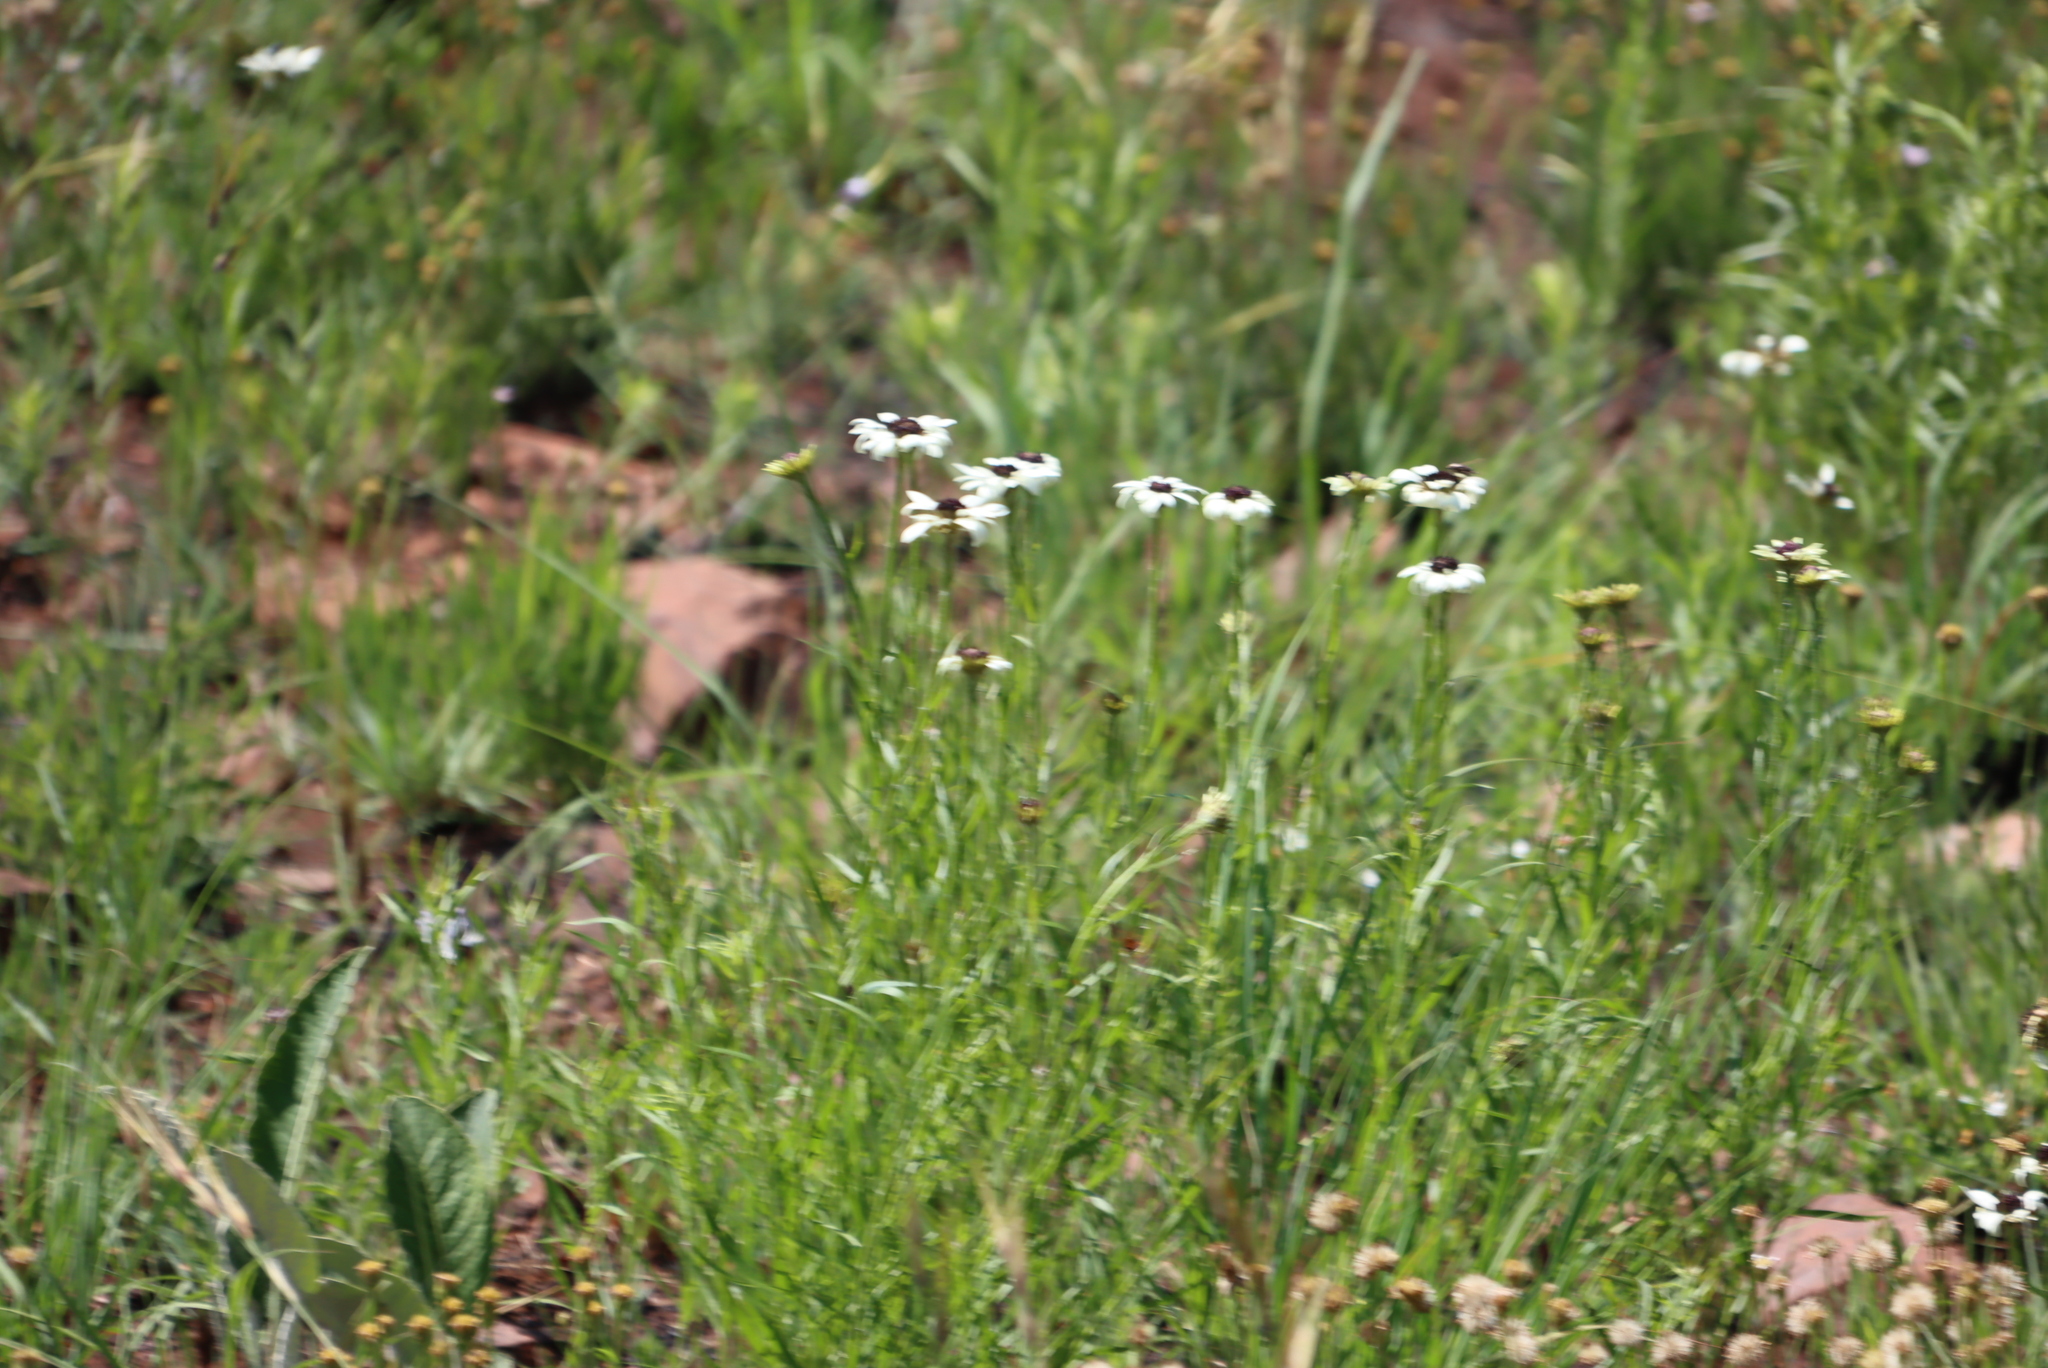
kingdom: Plantae
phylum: Tracheophyta
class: Magnoliopsida
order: Asterales
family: Asteraceae
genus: Callilepis
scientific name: Callilepis laureola
